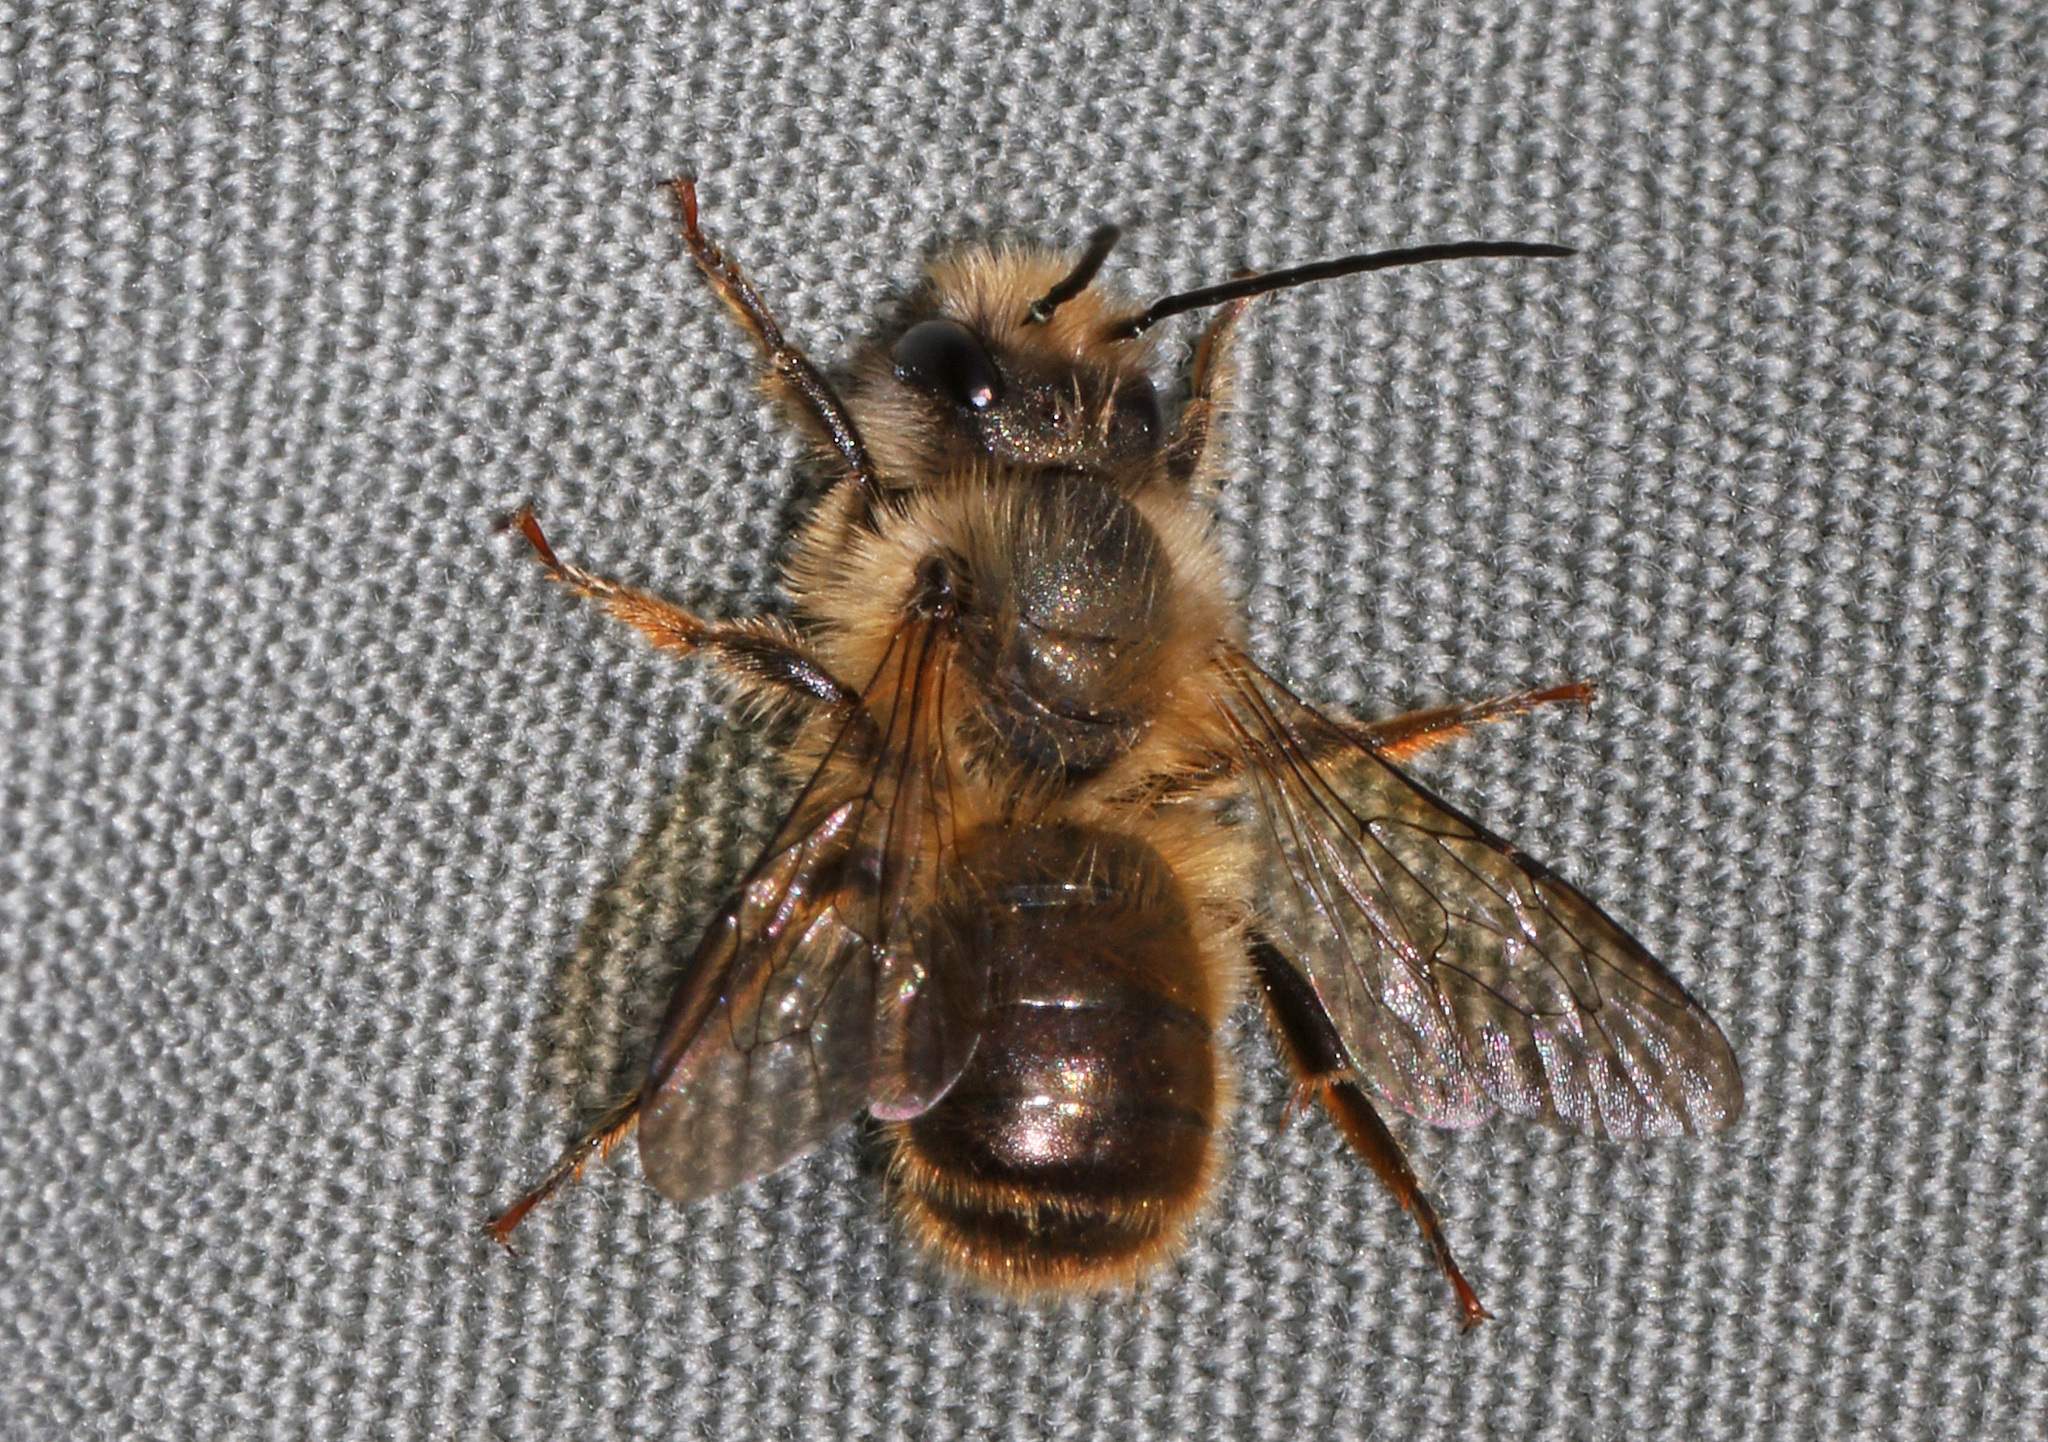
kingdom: Animalia
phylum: Arthropoda
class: Insecta
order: Hymenoptera
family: Megachilidae
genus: Osmia
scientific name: Osmia taurus
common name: Taurus mason bee
